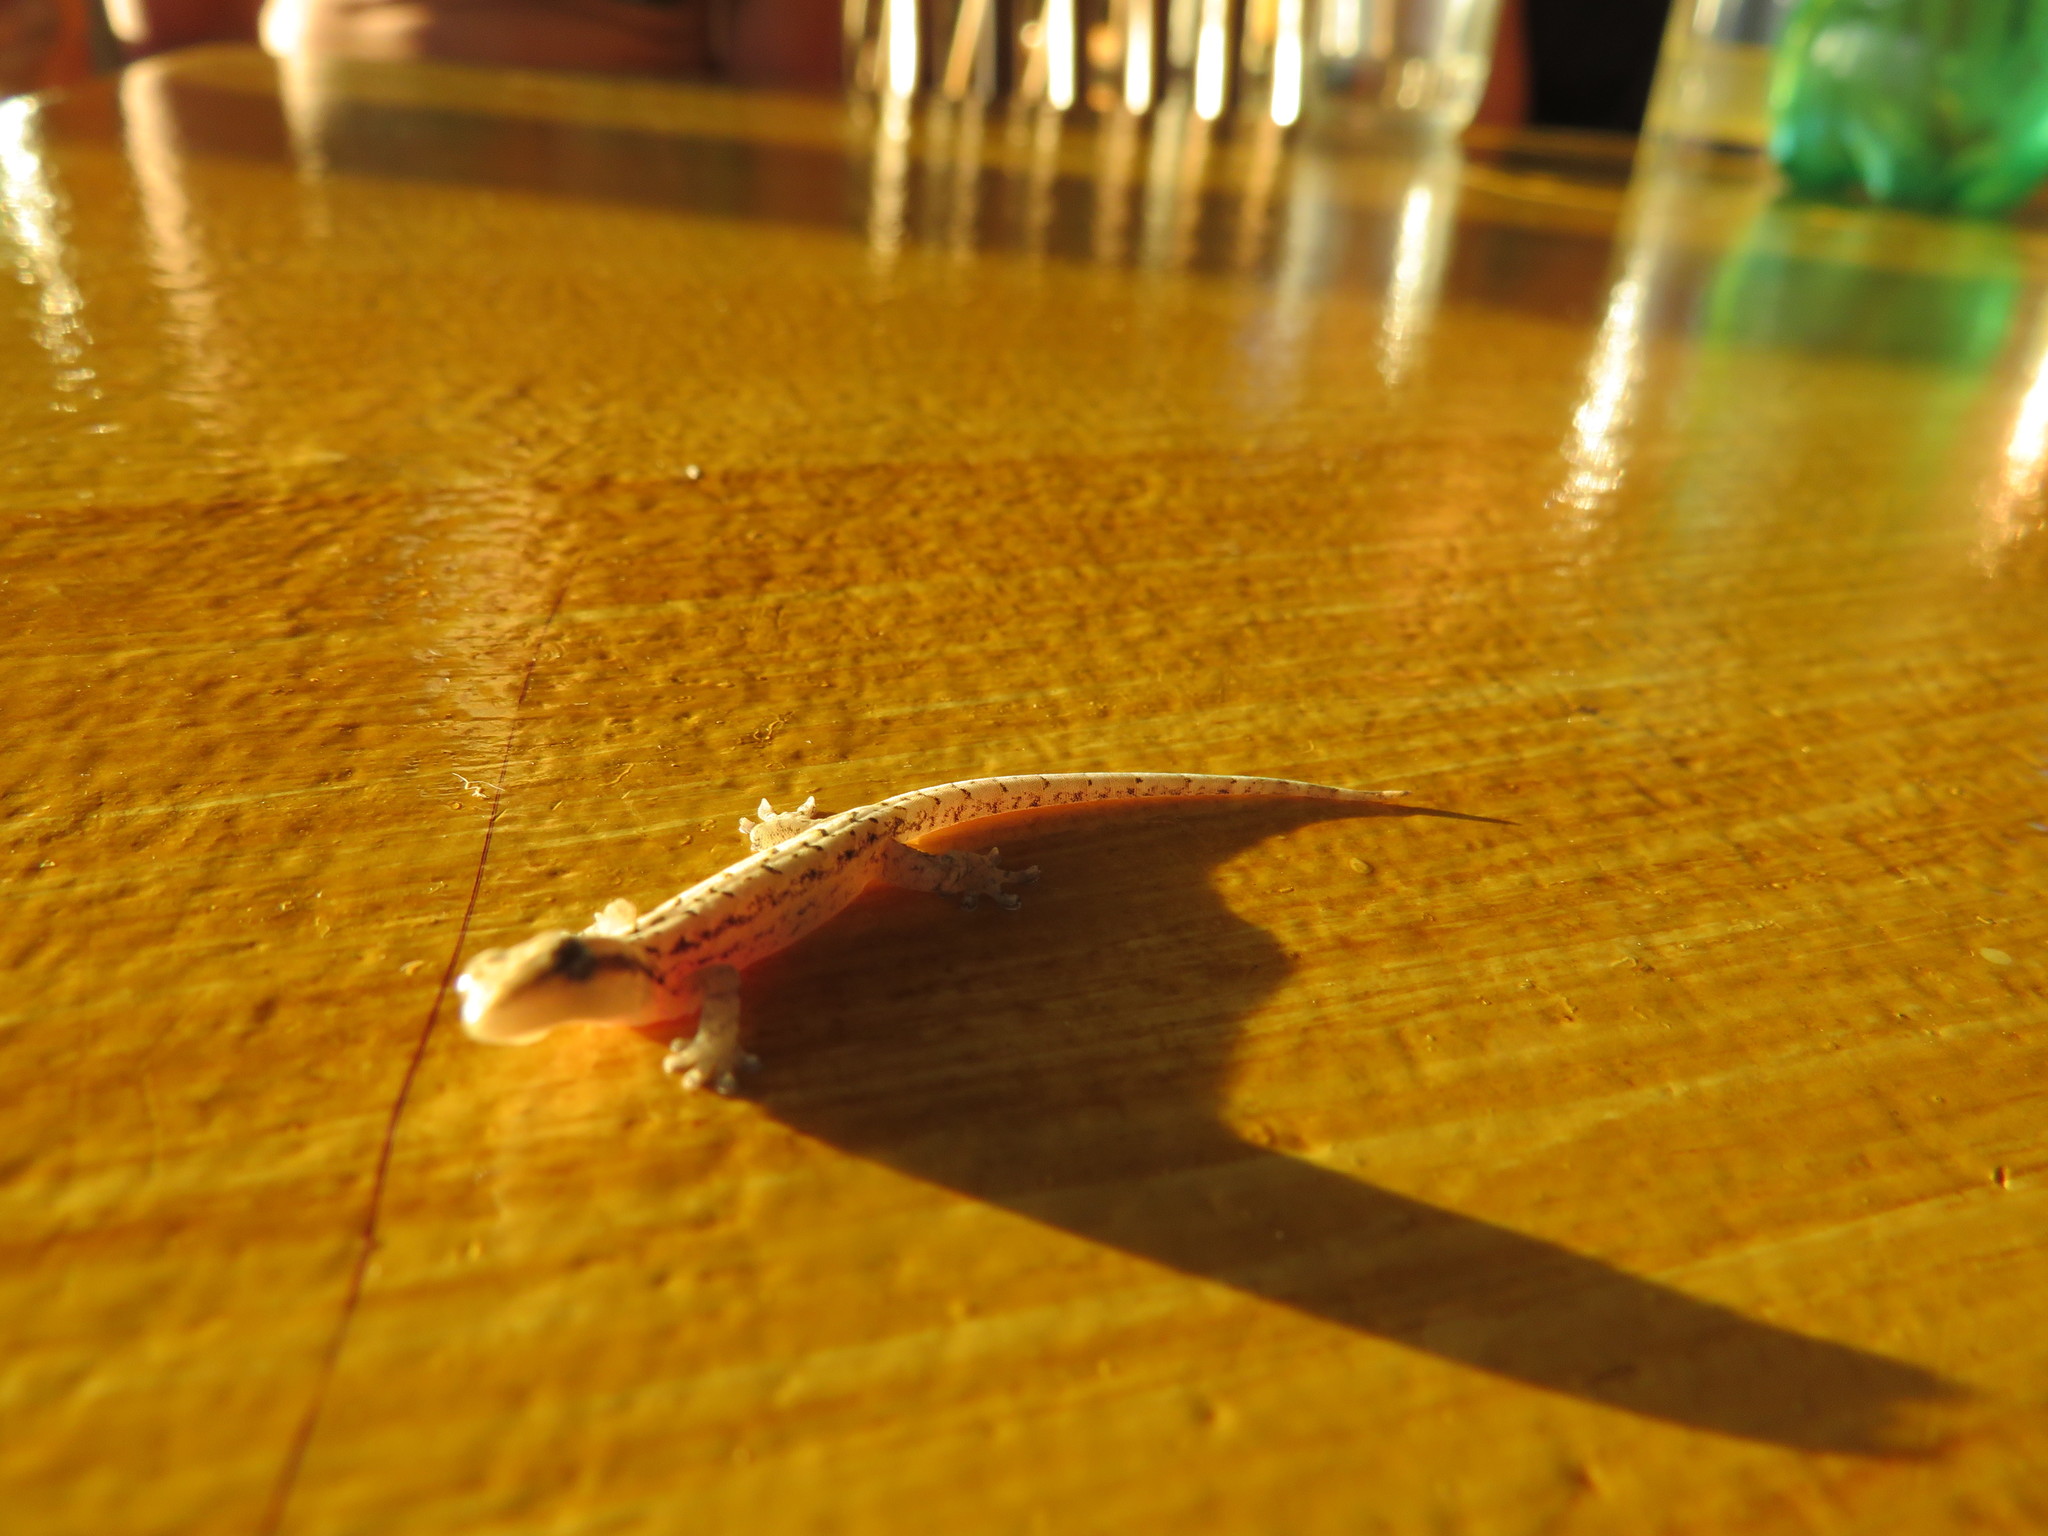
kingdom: Animalia
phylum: Chordata
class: Squamata
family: Gekkonidae
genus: Lepidodactylus
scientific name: Lepidodactylus lugubris
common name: Mourning gecko
